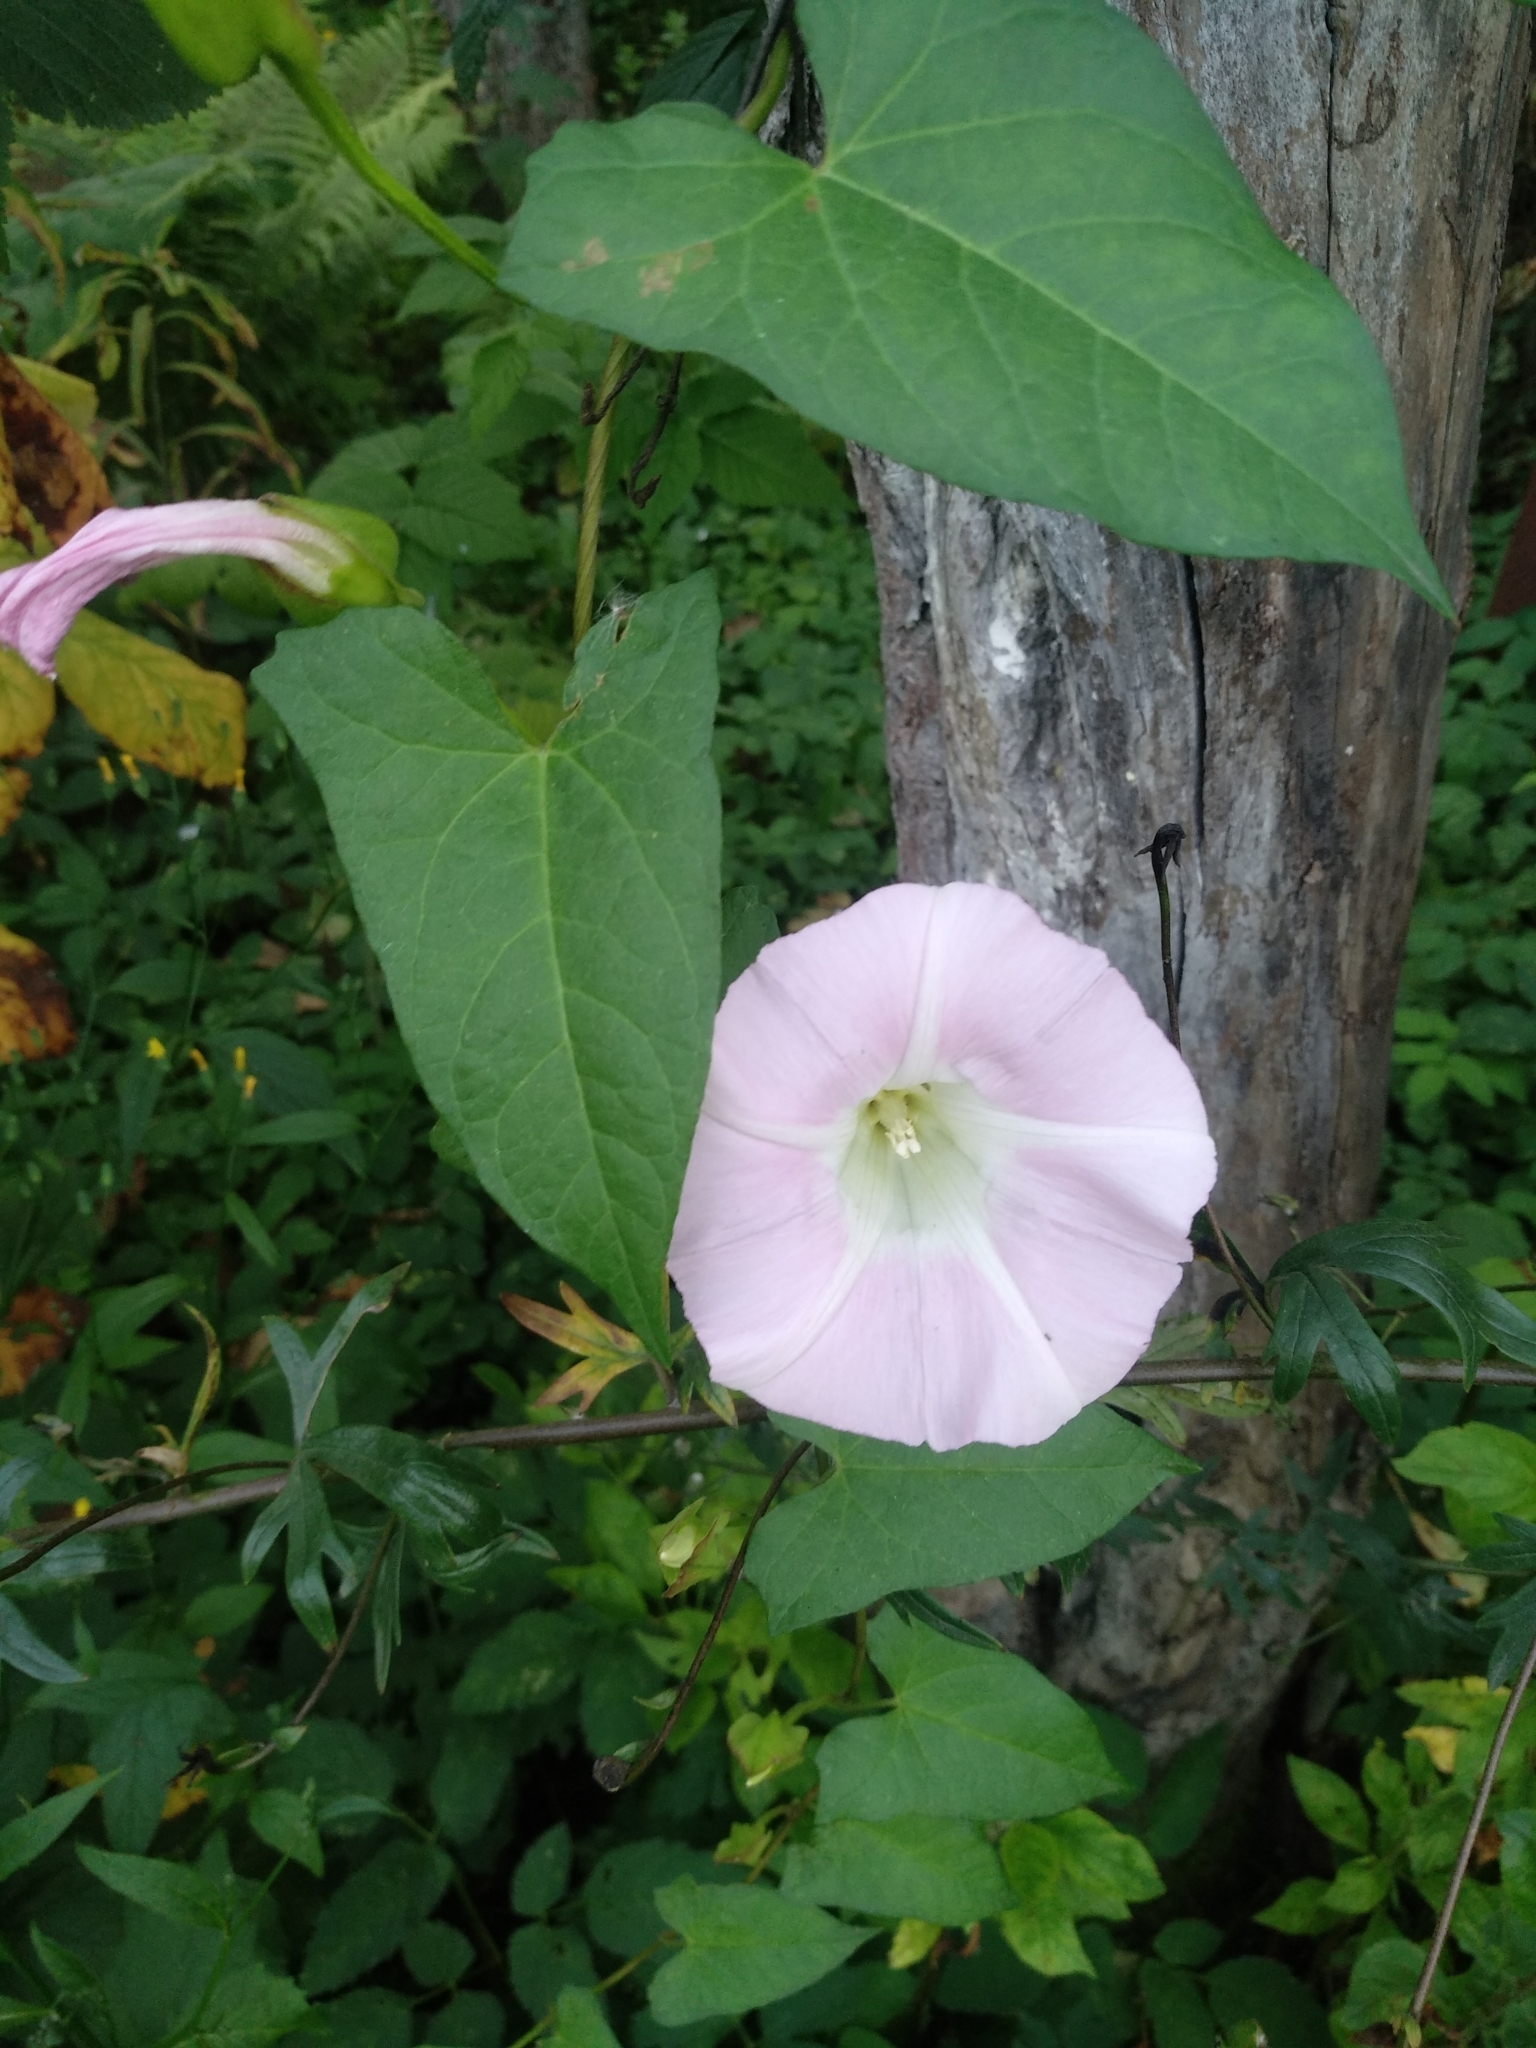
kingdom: Plantae
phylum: Tracheophyta
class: Magnoliopsida
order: Solanales
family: Convolvulaceae
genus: Calystegia
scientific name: Calystegia sepium
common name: Hedge bindweed
